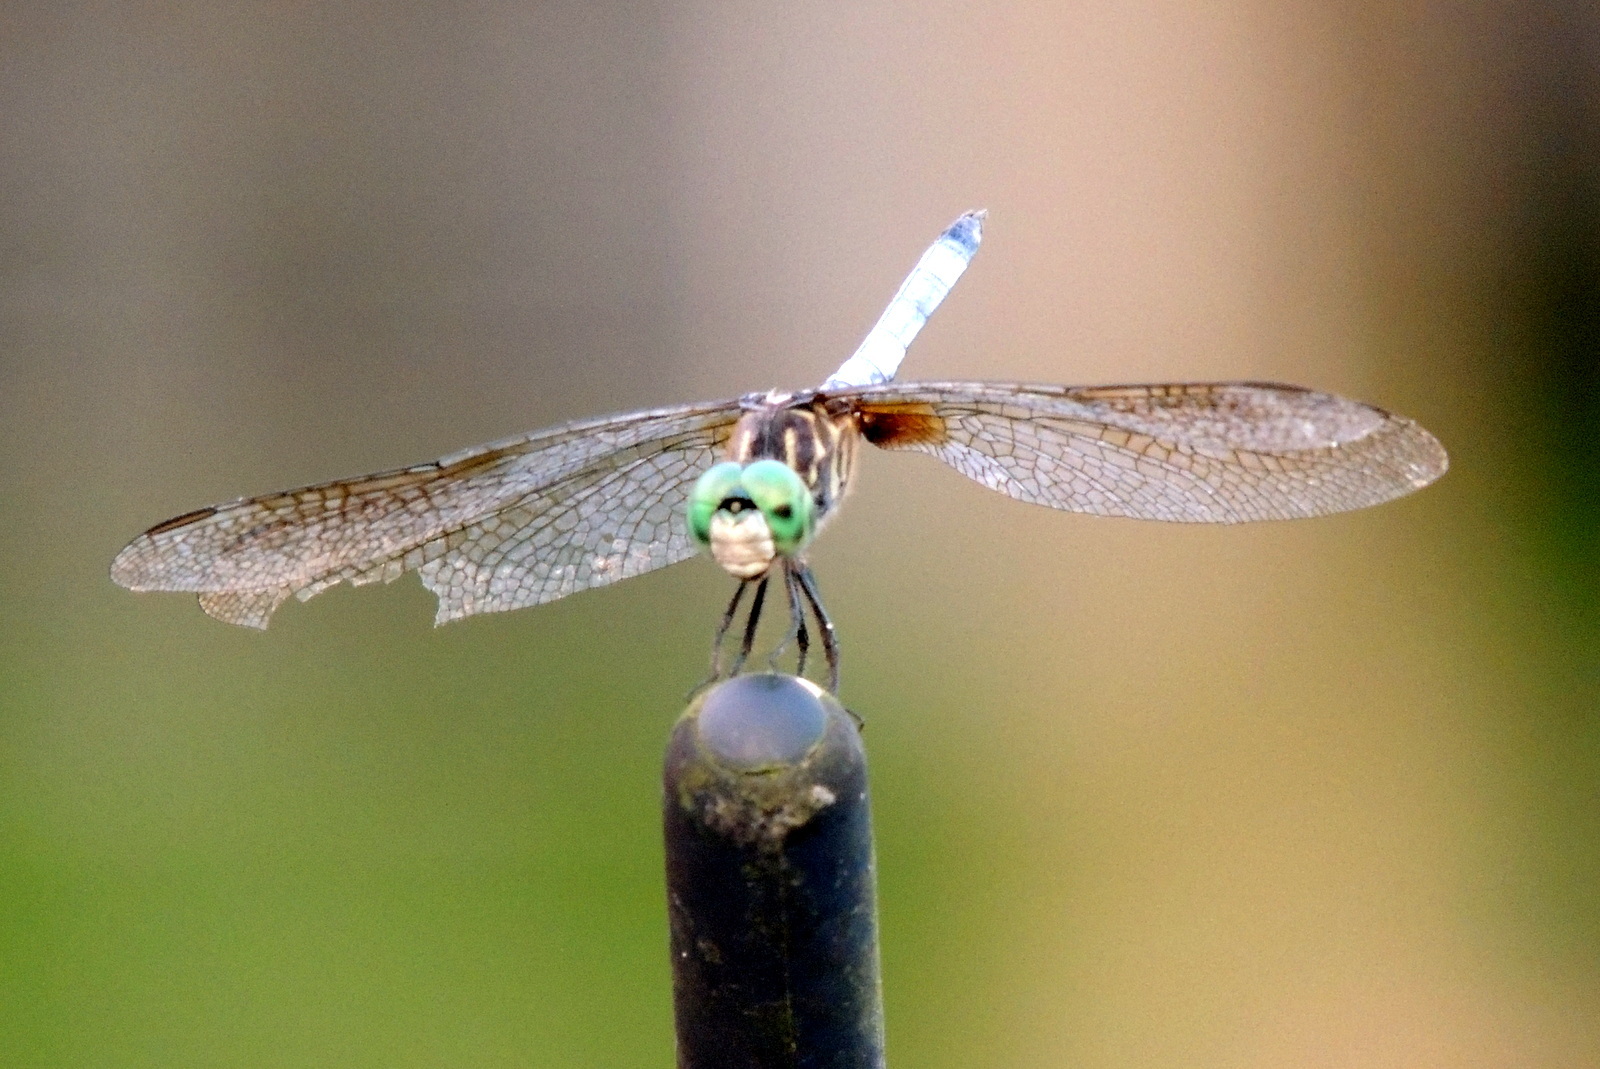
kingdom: Animalia
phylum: Arthropoda
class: Insecta
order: Odonata
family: Libellulidae
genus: Pachydiplax
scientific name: Pachydiplax longipennis
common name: Blue dasher
